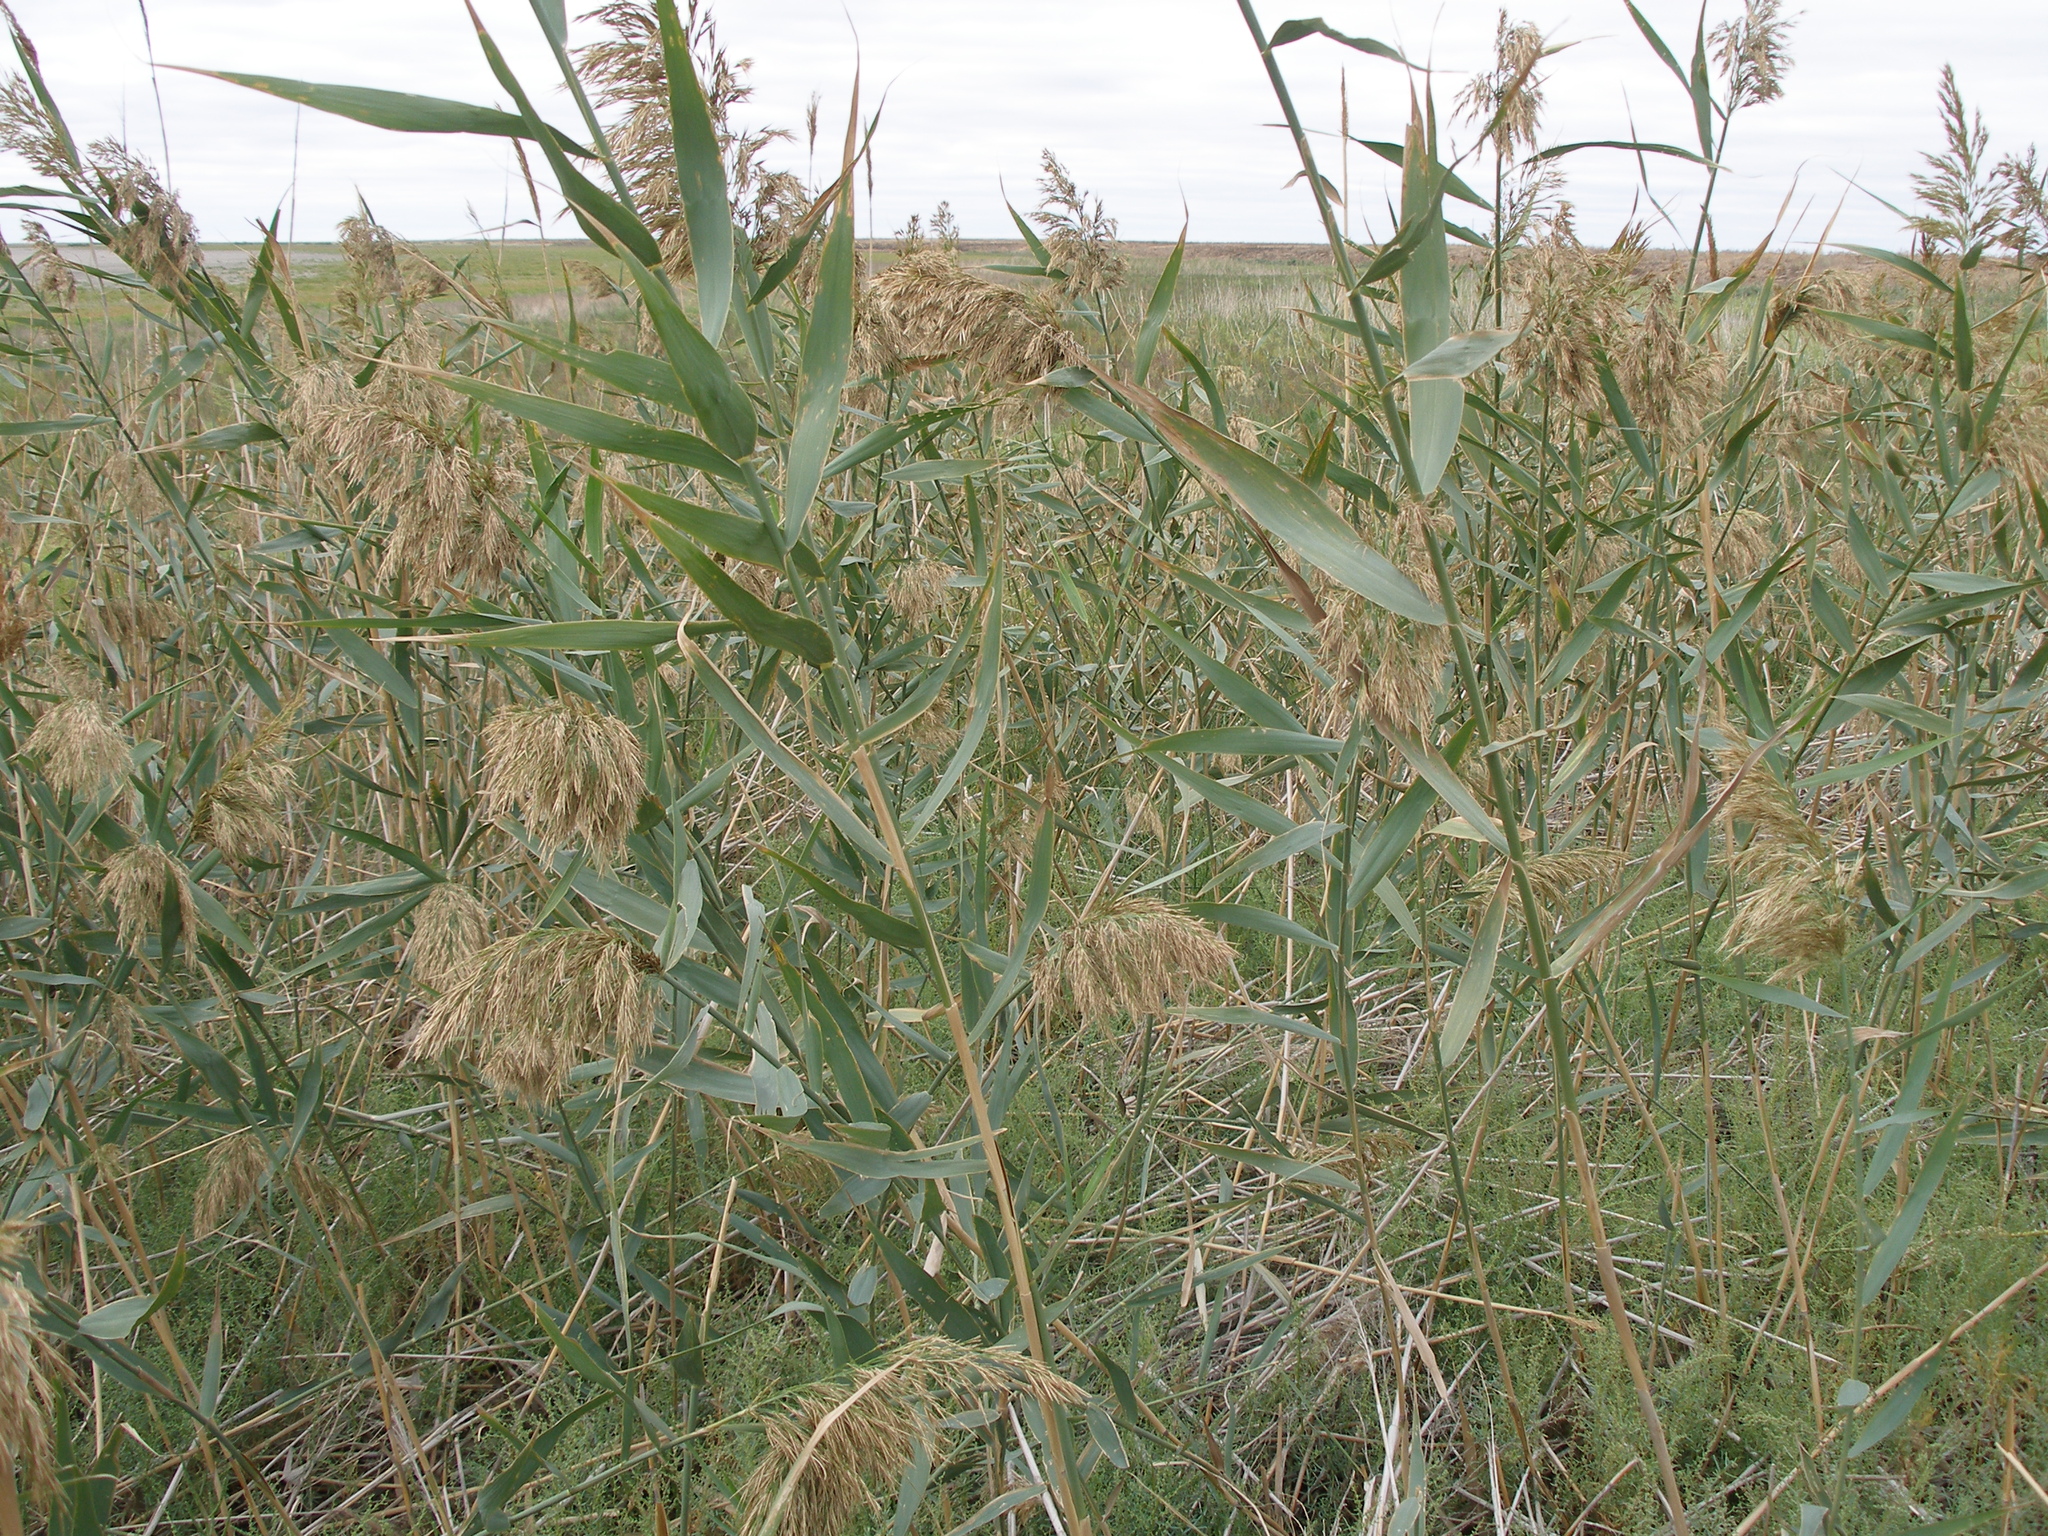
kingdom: Plantae
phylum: Tracheophyta
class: Liliopsida
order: Poales
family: Poaceae
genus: Phragmites
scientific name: Phragmites australis
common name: Common reed
